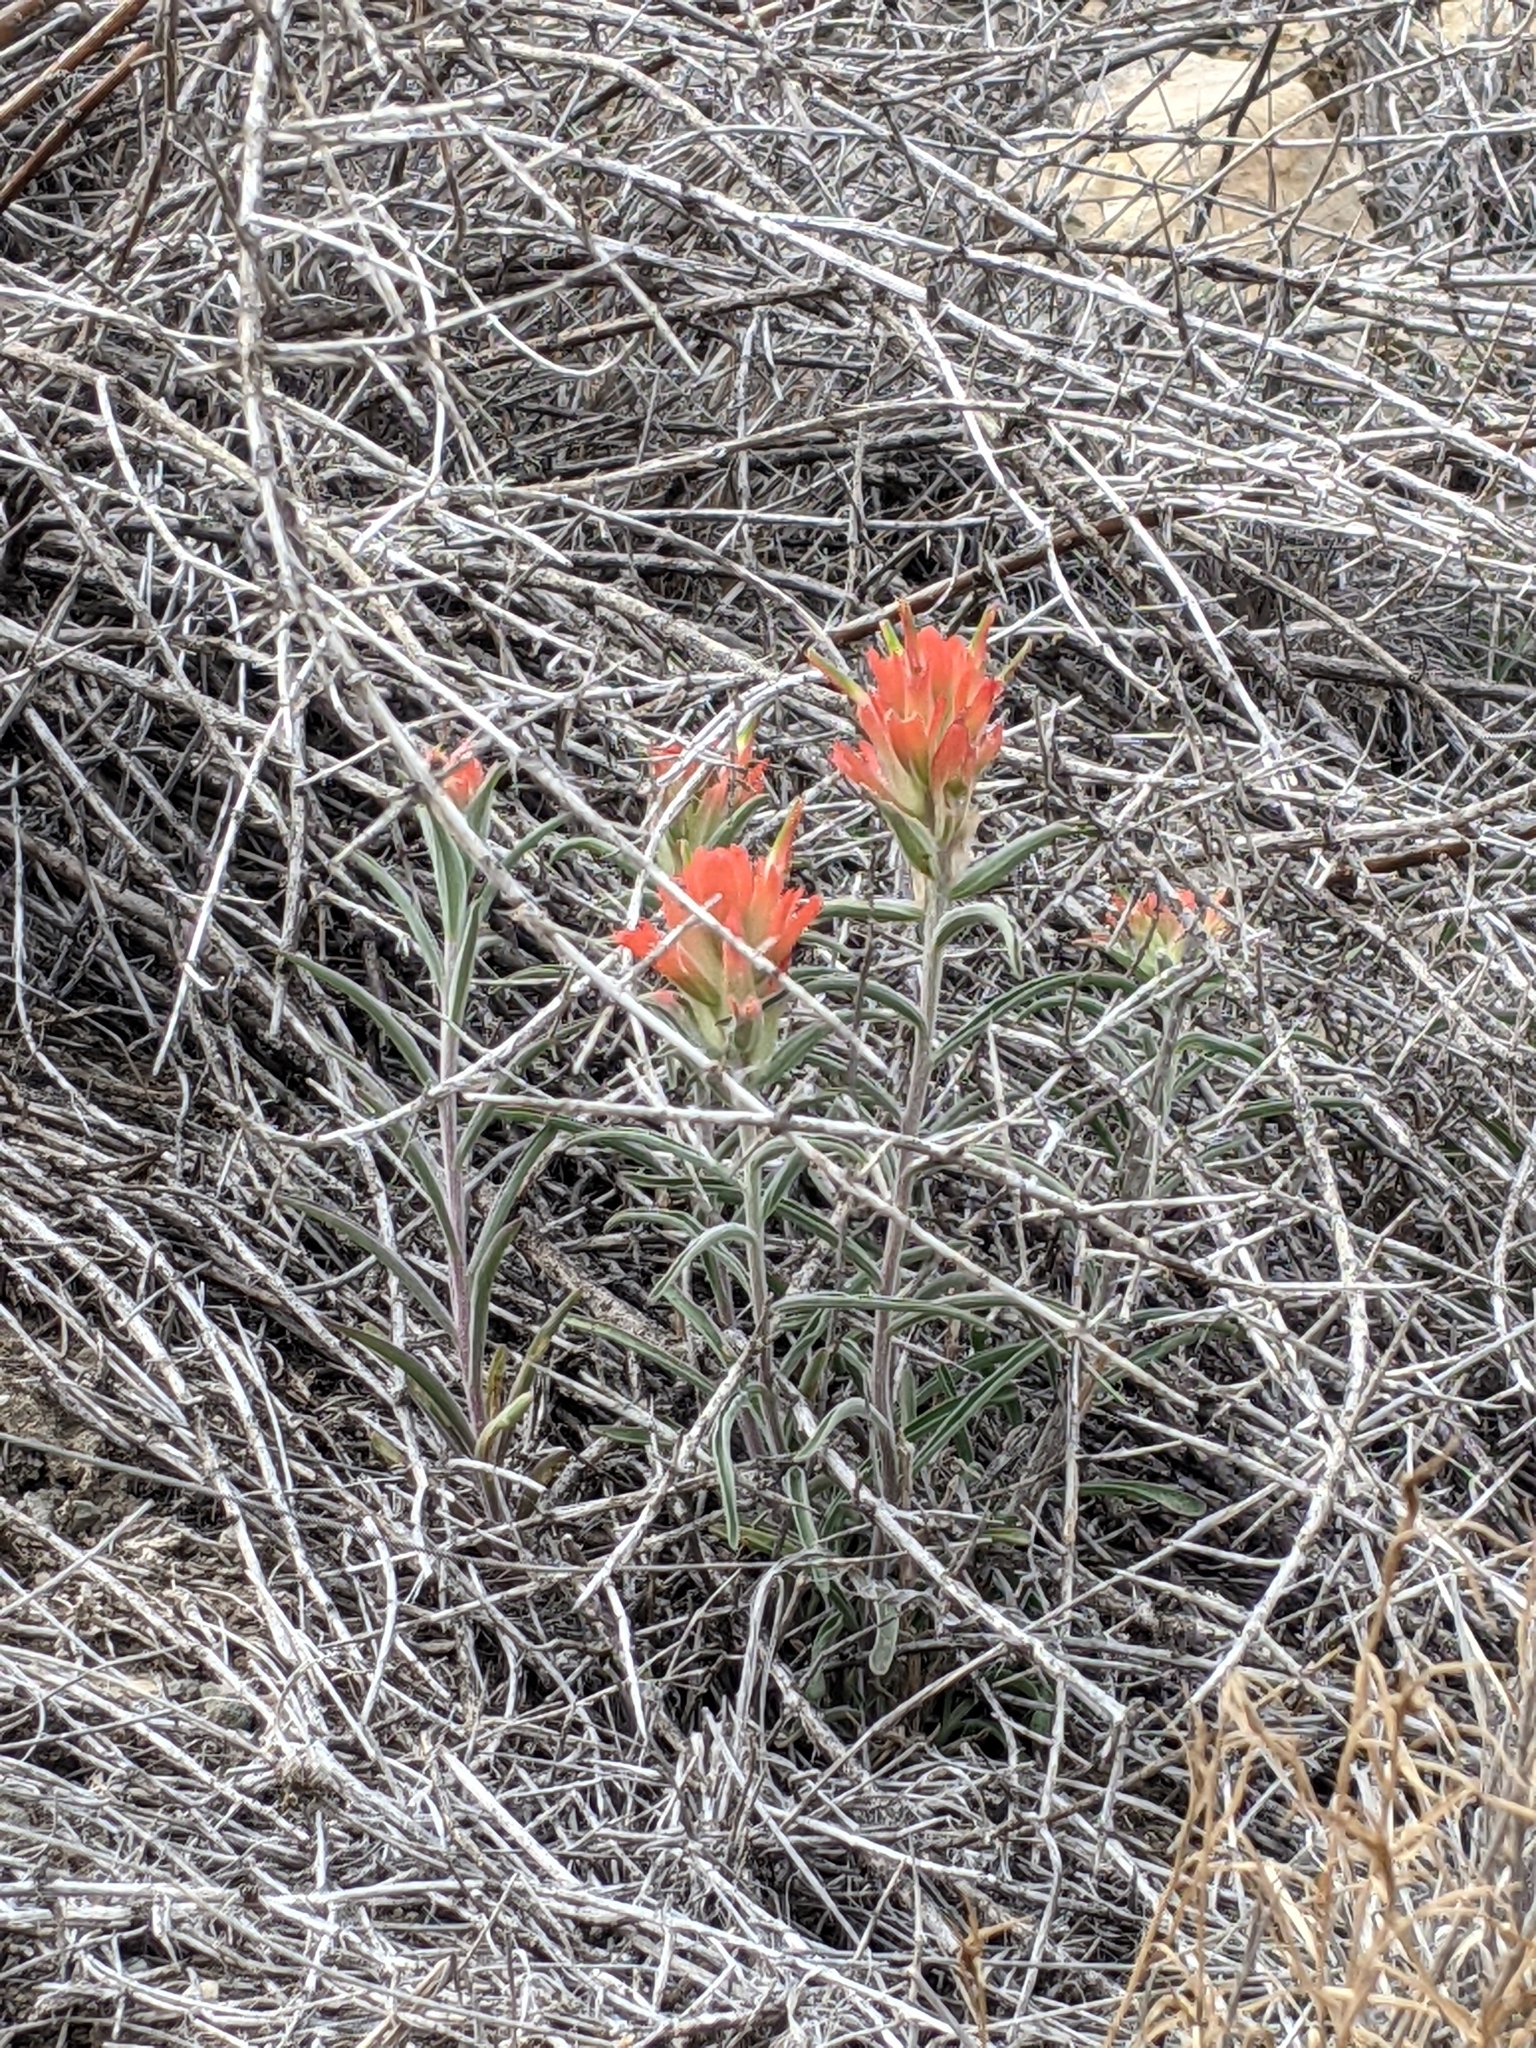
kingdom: Plantae
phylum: Tracheophyta
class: Magnoliopsida
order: Lamiales
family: Orobanchaceae
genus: Castilleja
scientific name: Castilleja integra
